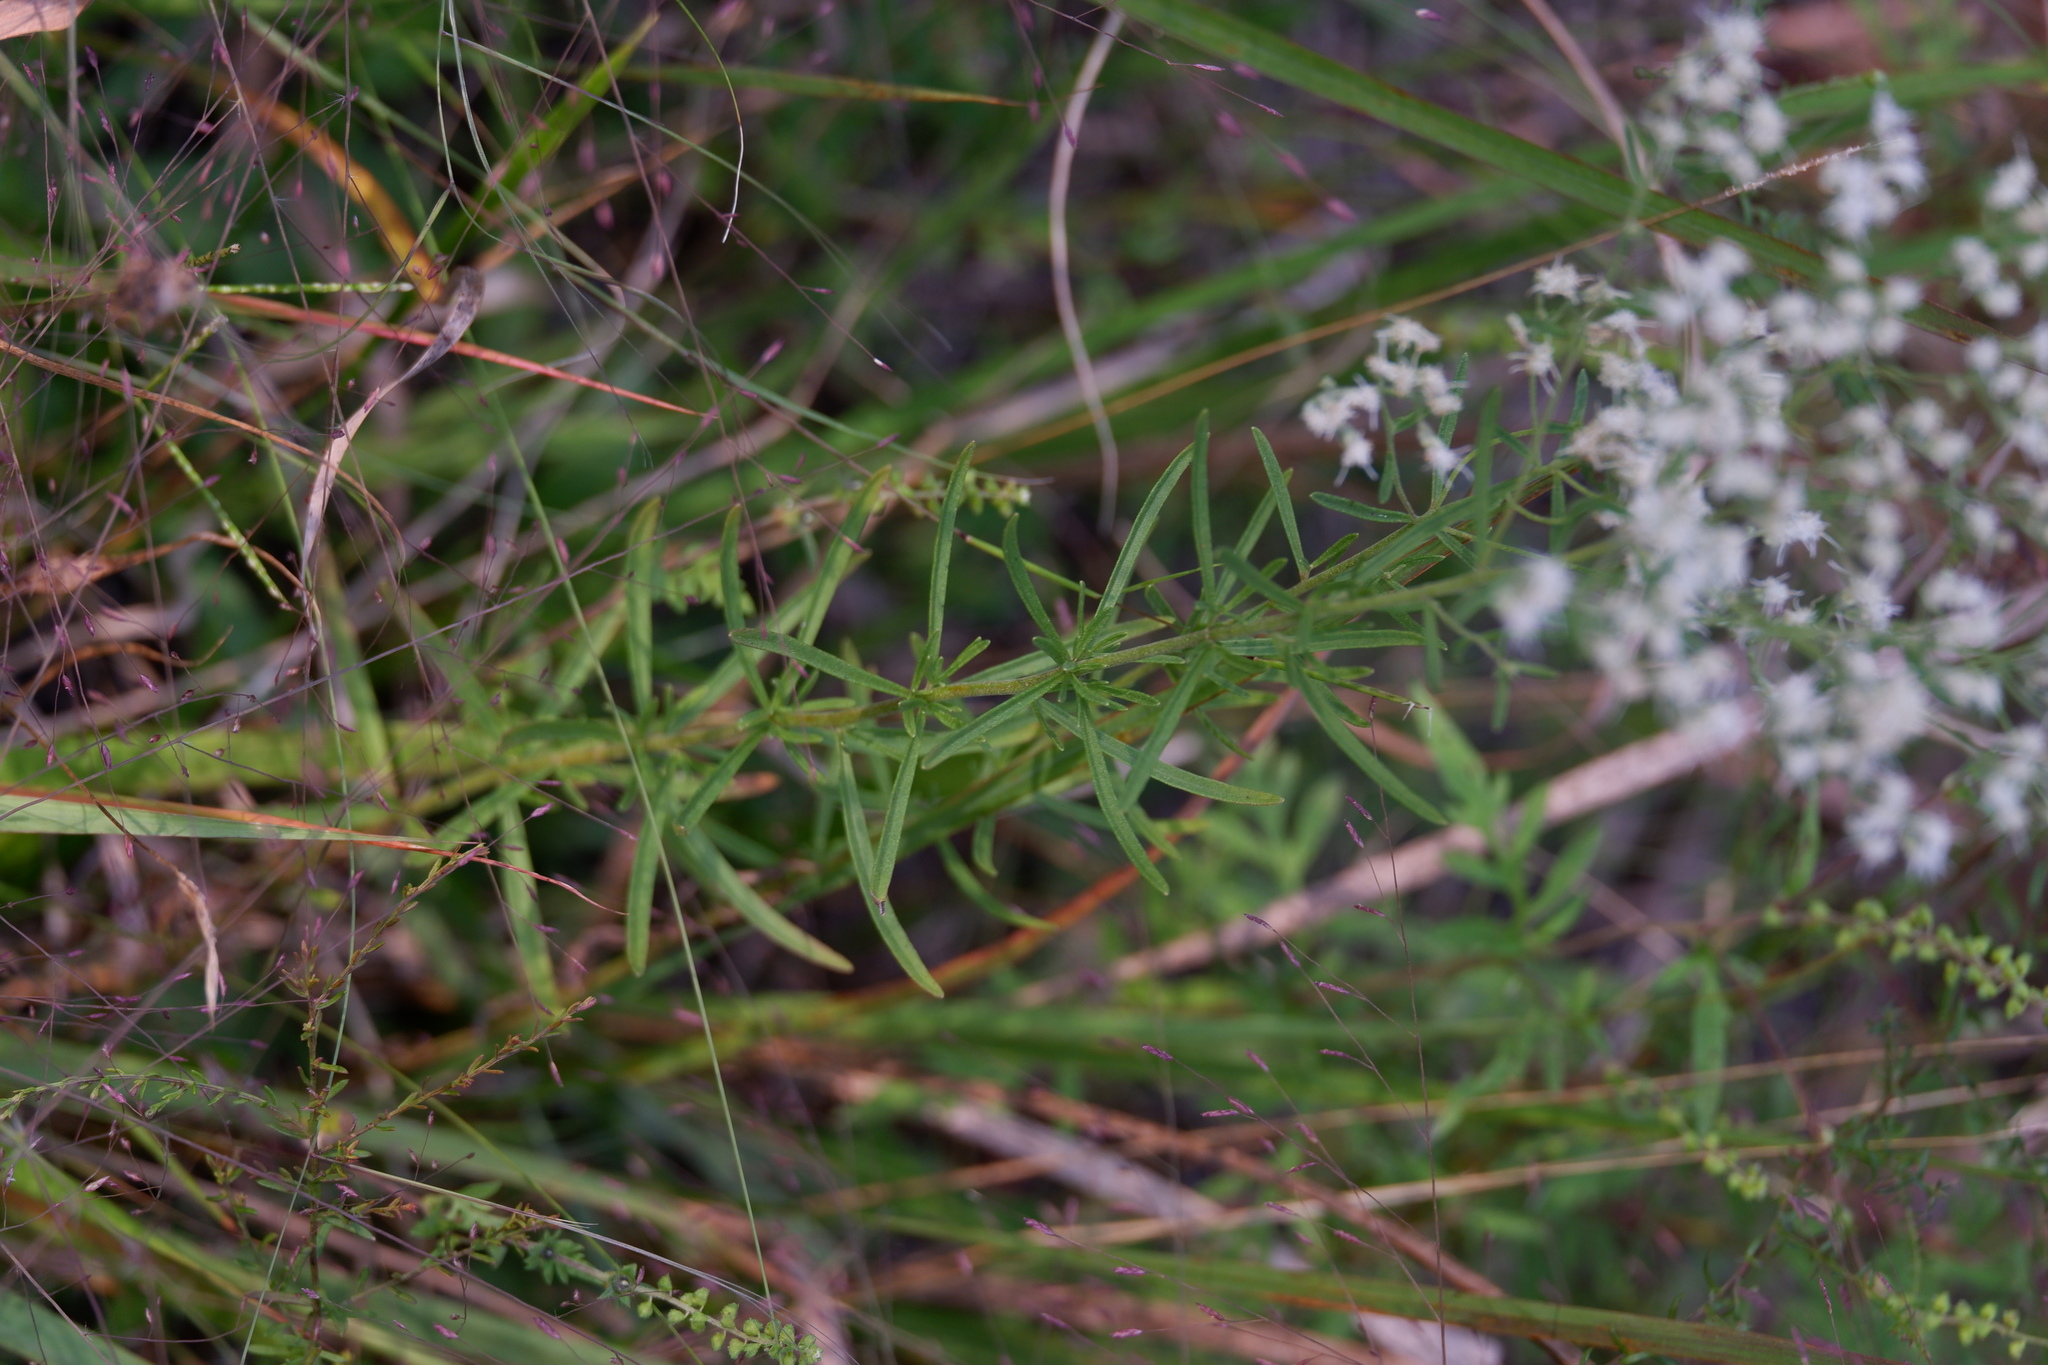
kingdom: Plantae
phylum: Tracheophyta
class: Magnoliopsida
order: Asterales
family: Asteraceae
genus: Eupatorium
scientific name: Eupatorium hyssopifolium
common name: Hyssop-leaf thoroughwort
